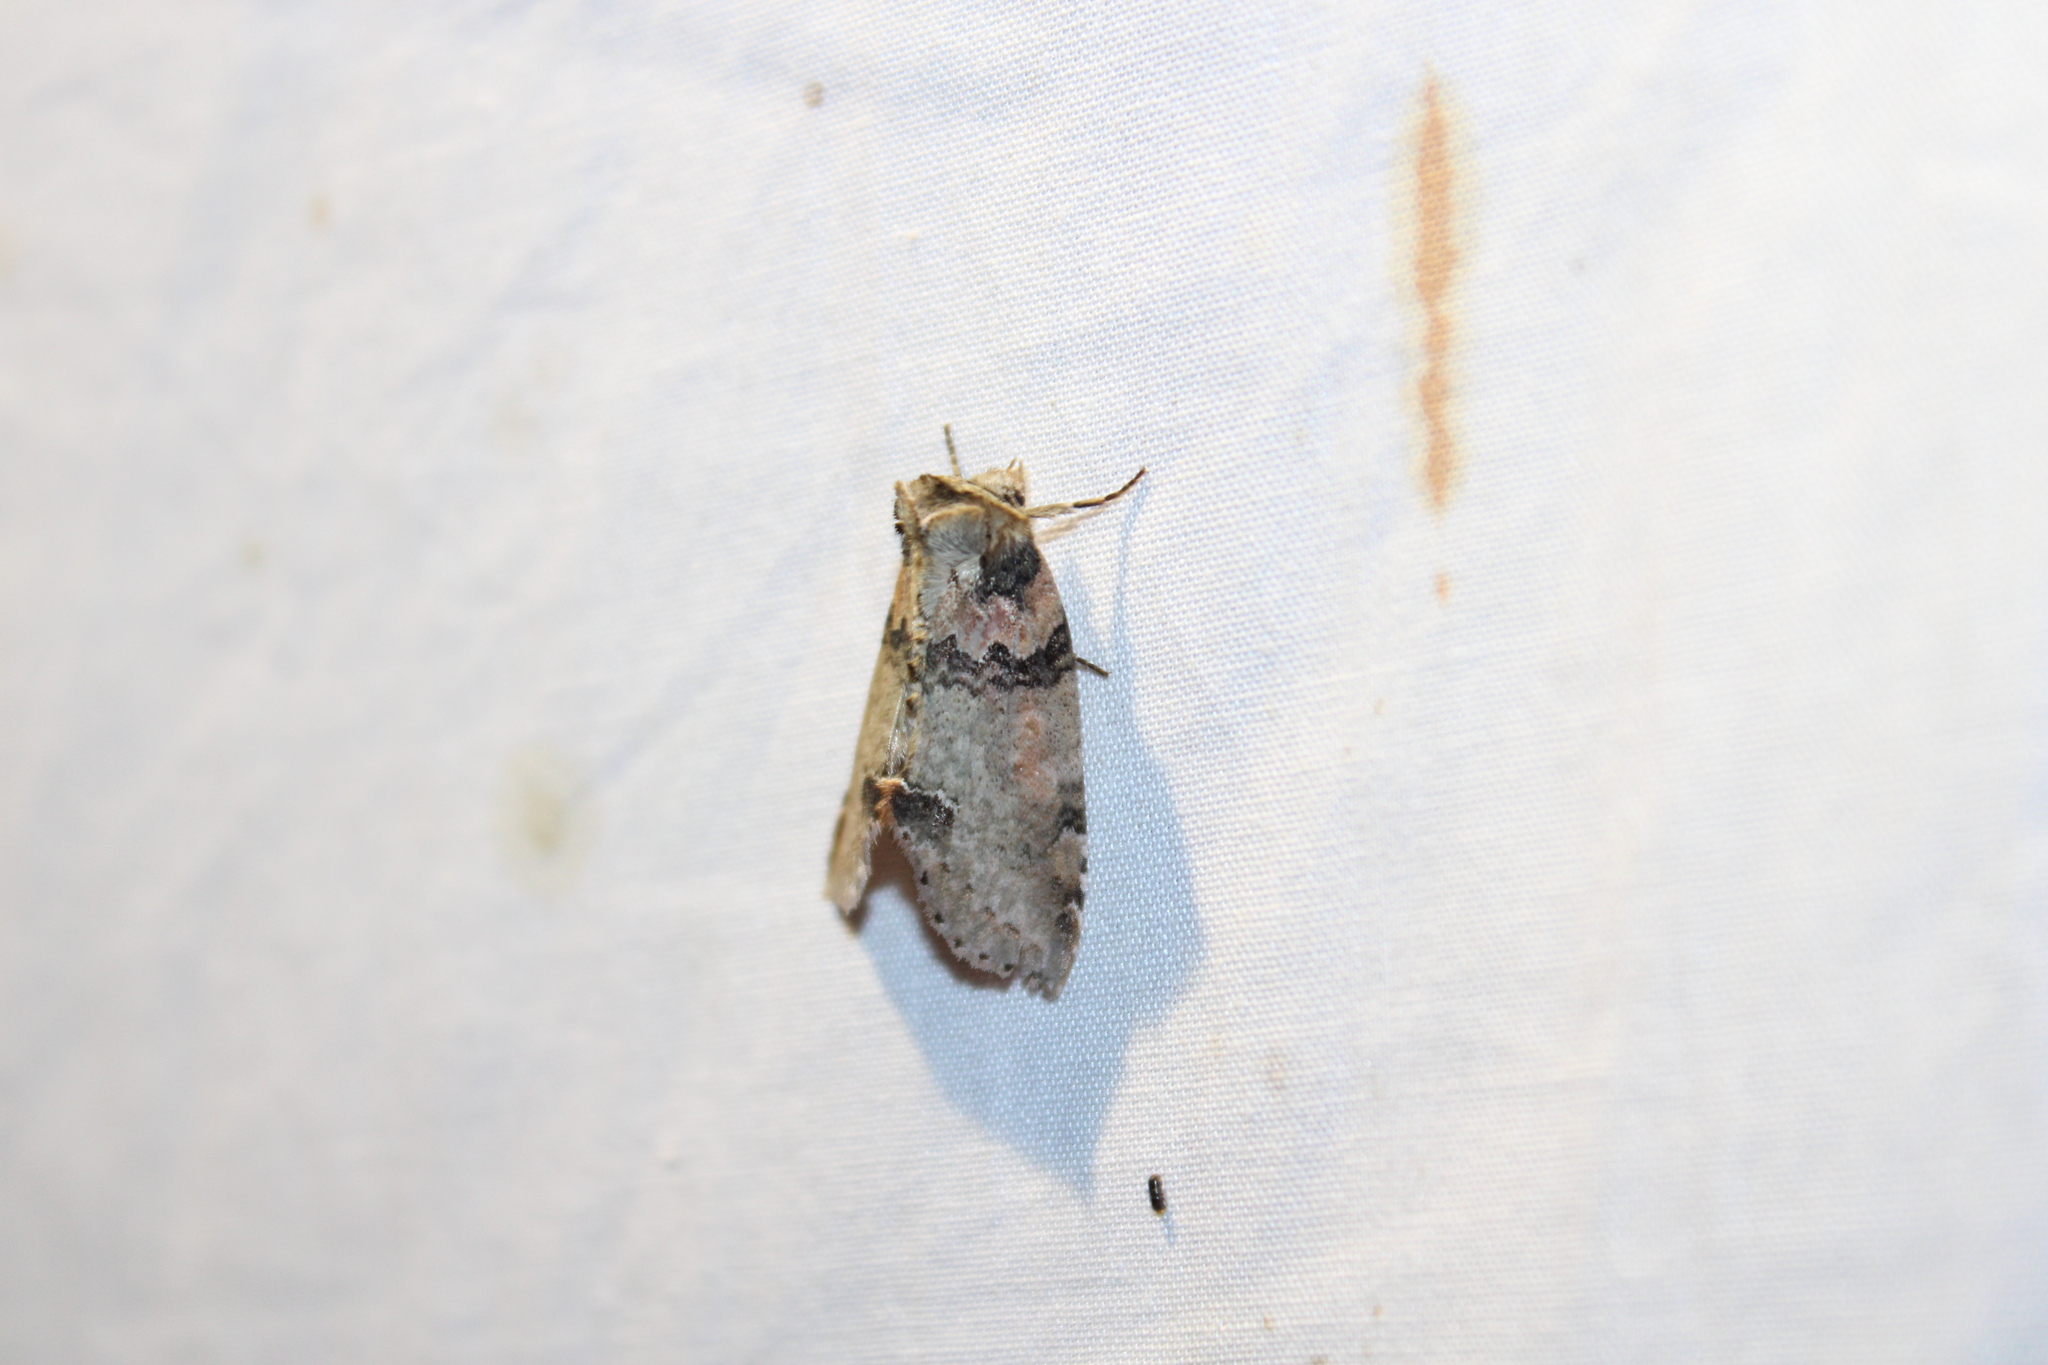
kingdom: Animalia
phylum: Arthropoda
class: Insecta
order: Lepidoptera
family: Drepanidae
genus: Pseudothyatira
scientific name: Pseudothyatira cymatophoroides
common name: Tufted thyatirid moth
